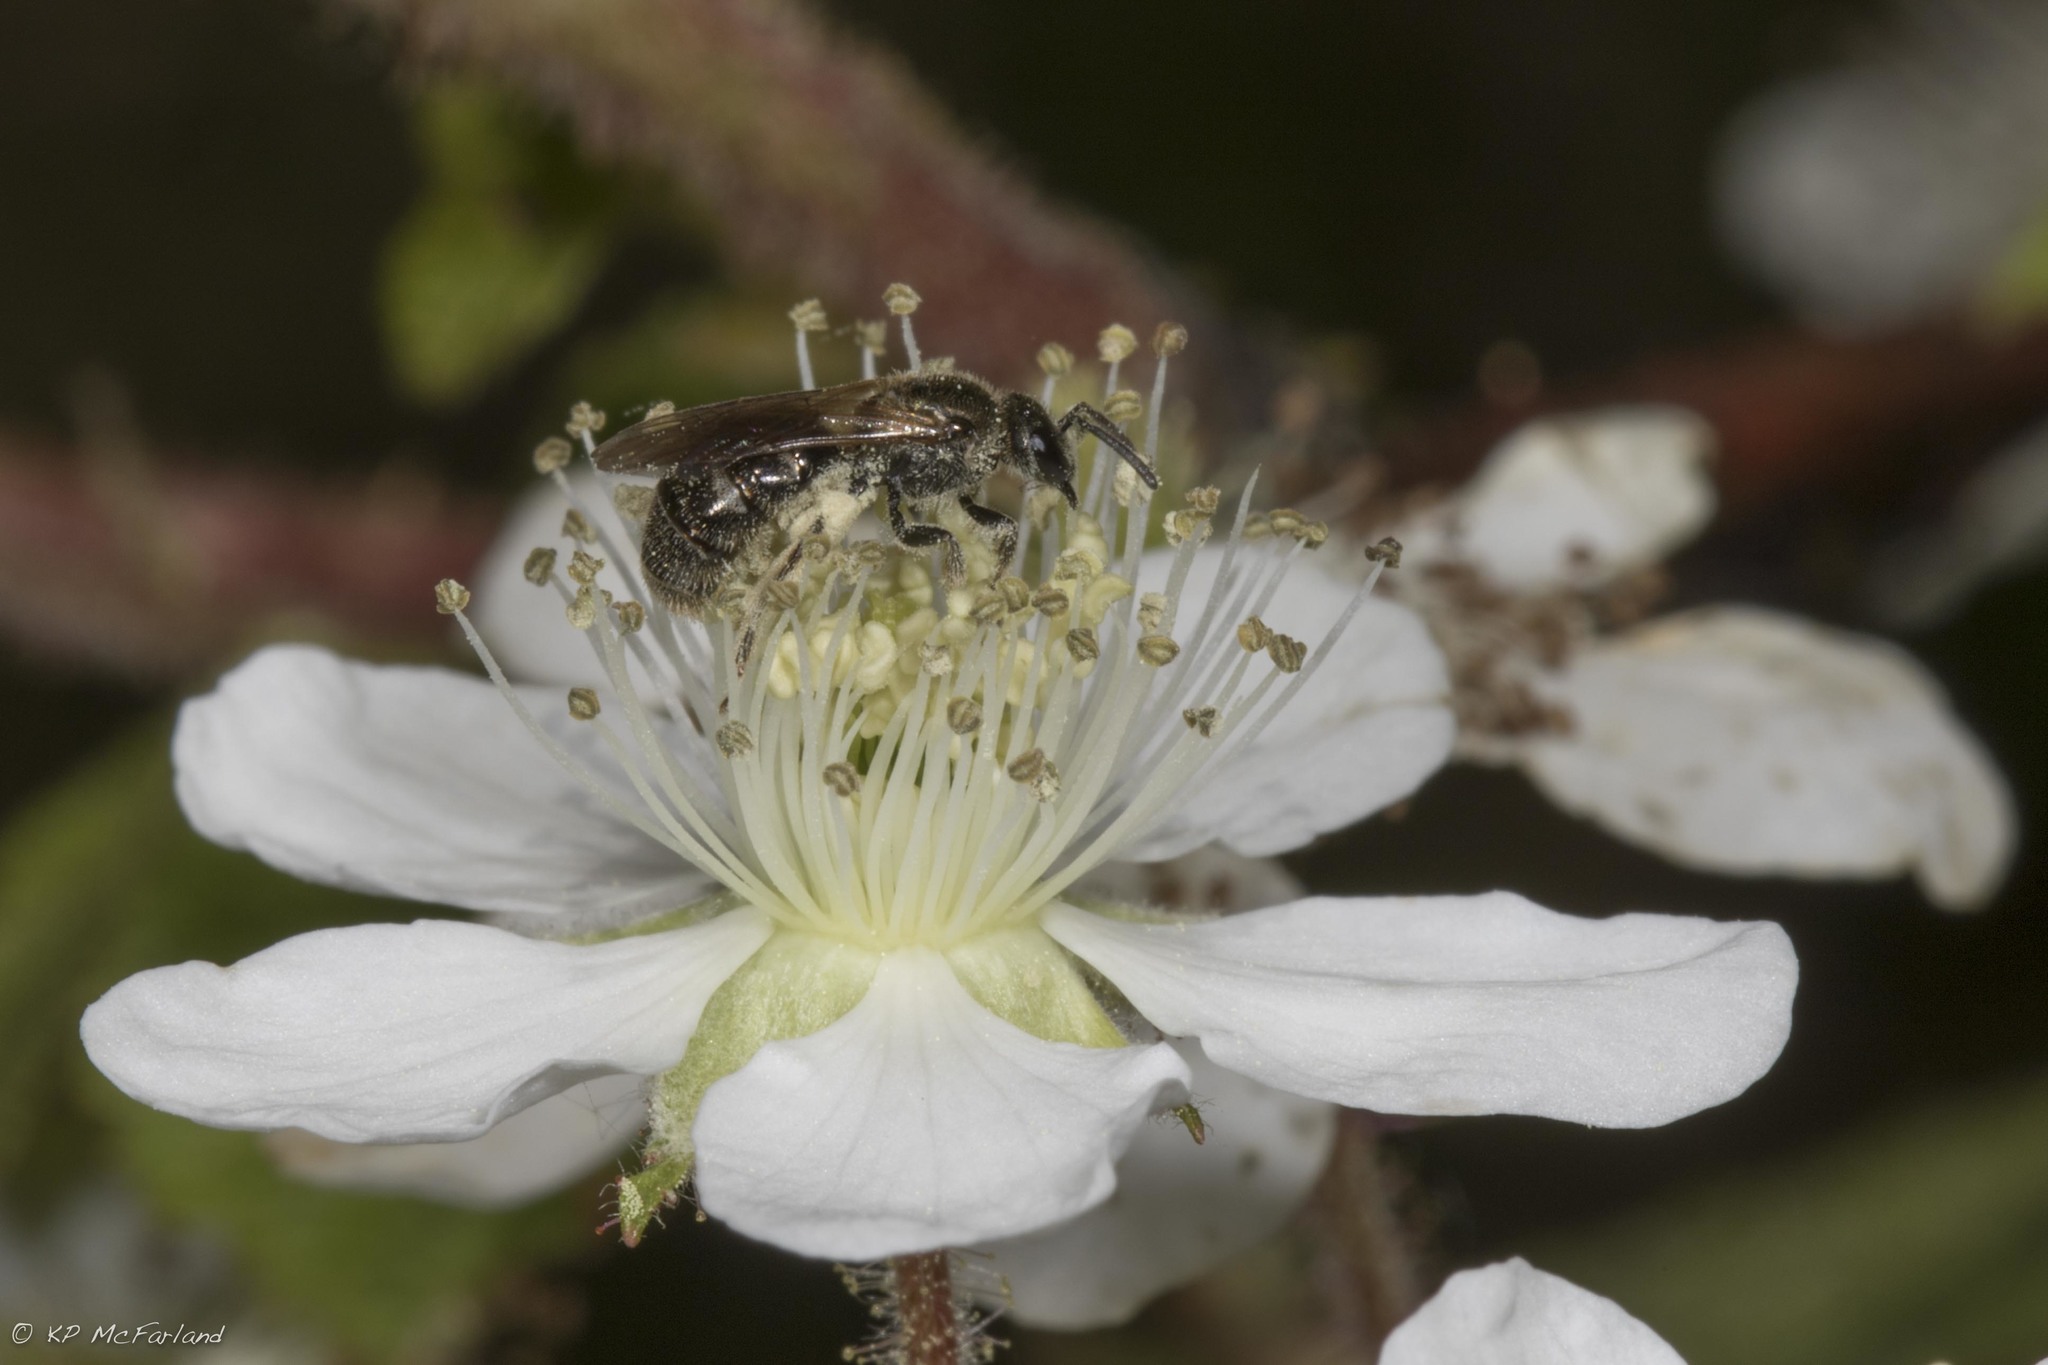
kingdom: Animalia
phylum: Arthropoda
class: Insecta
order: Hymenoptera
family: Halictidae
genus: Dialictus
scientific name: Dialictus
